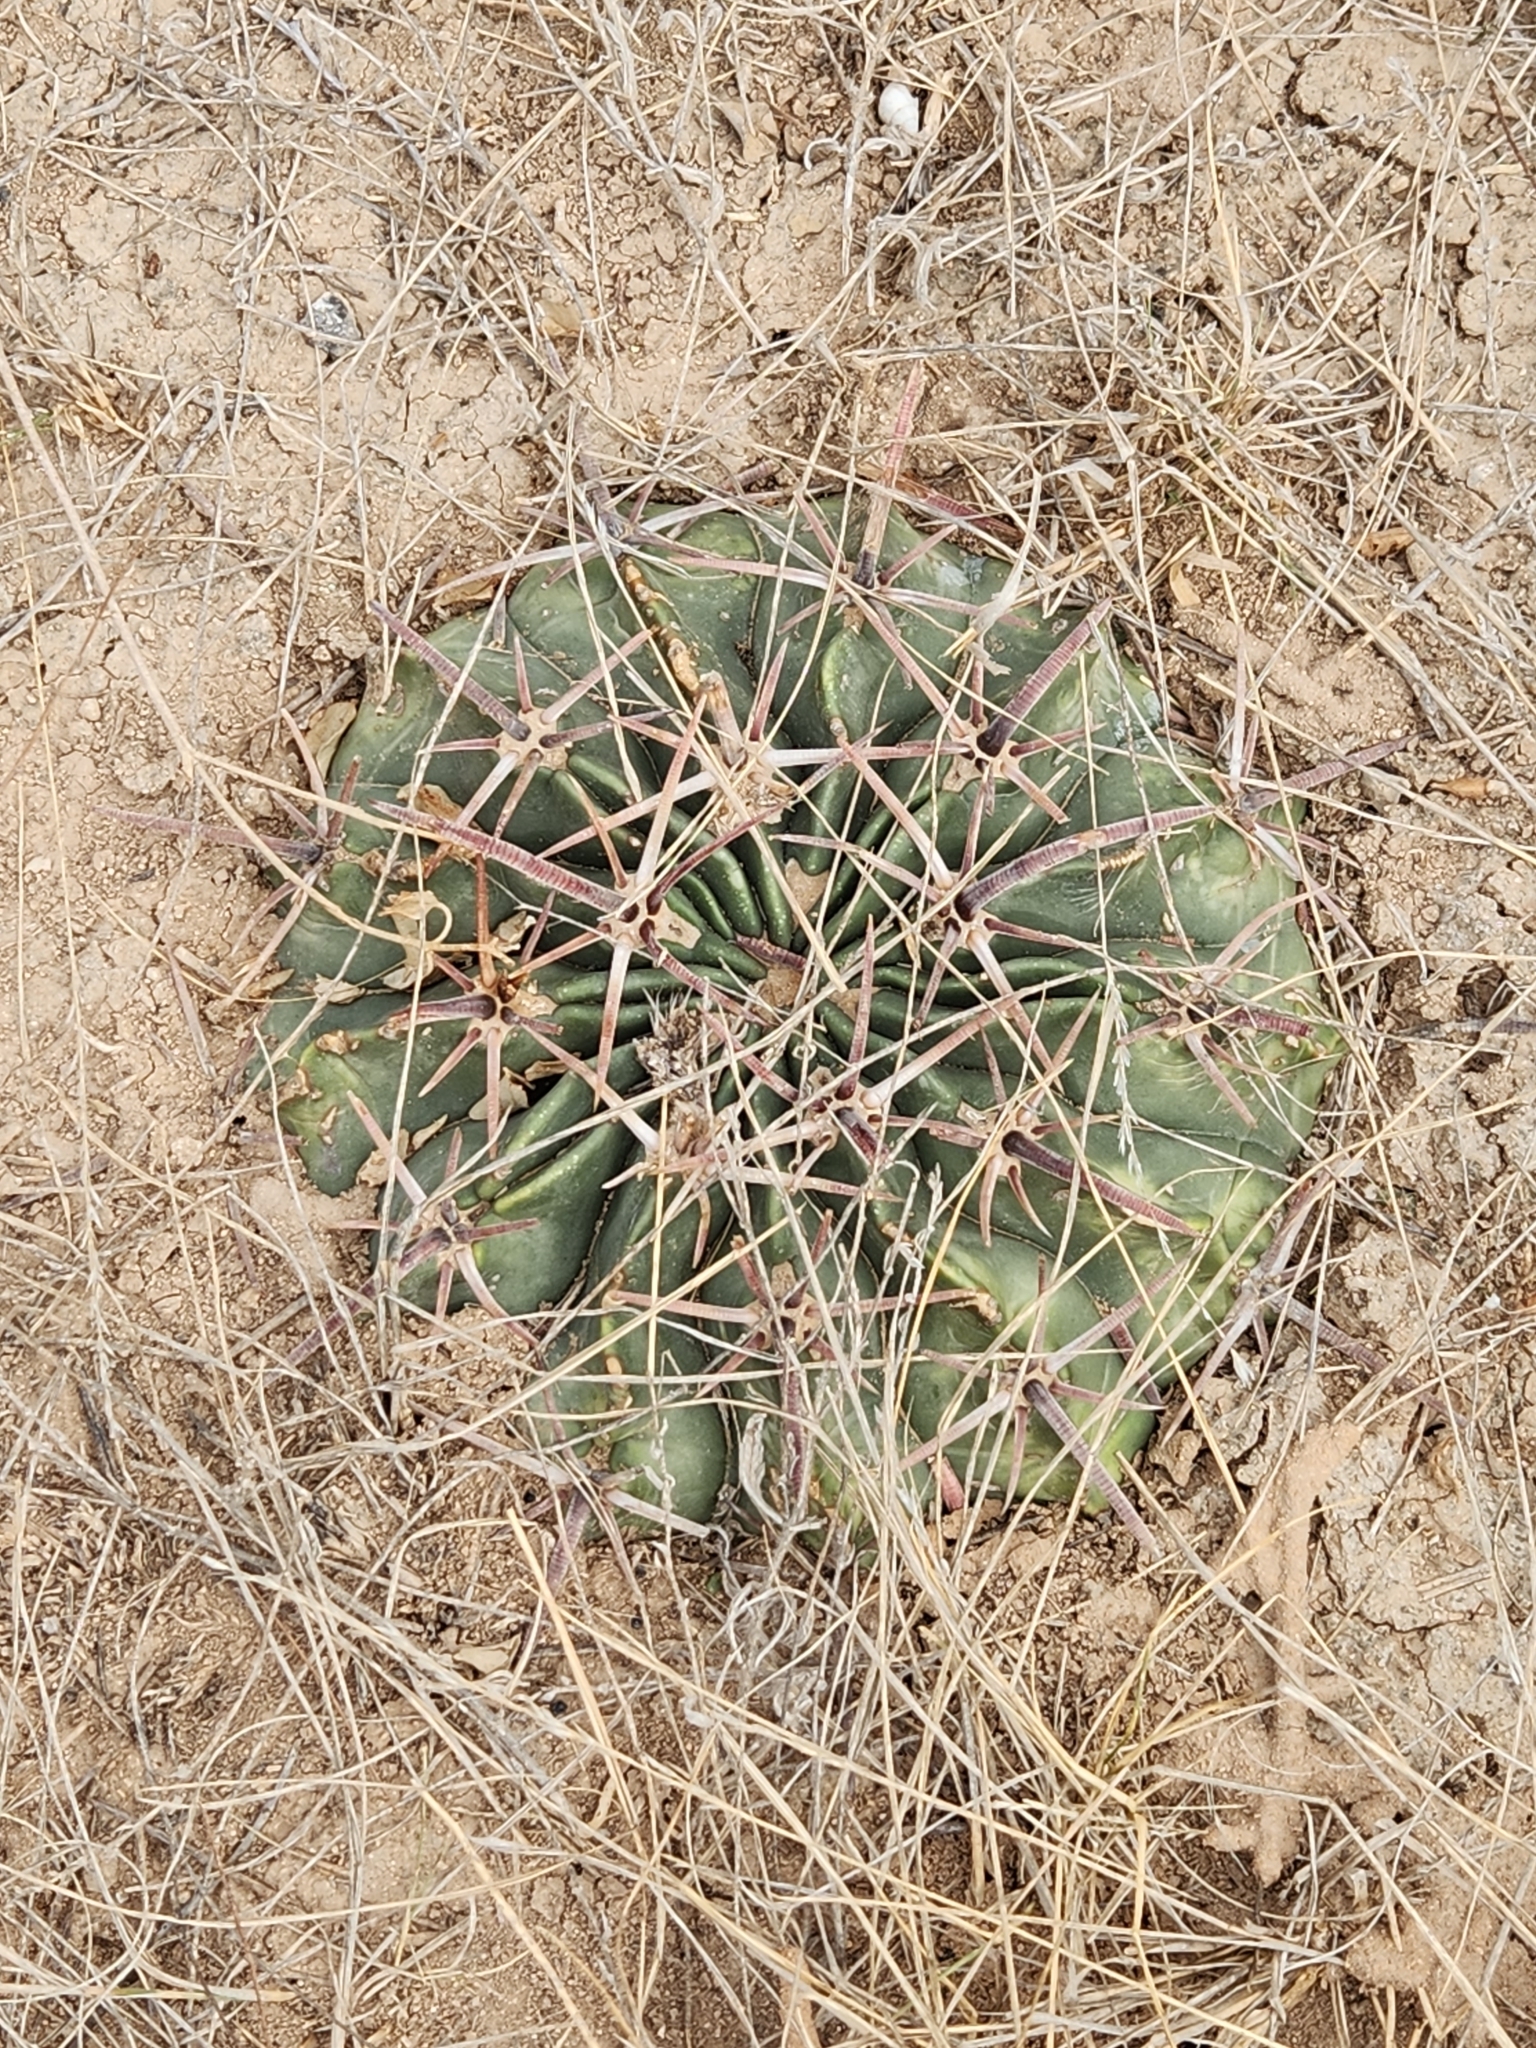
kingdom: Plantae
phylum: Tracheophyta
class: Magnoliopsida
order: Caryophyllales
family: Cactaceae
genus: Echinocactus
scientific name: Echinocactus texensis
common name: Devil's pincushion
